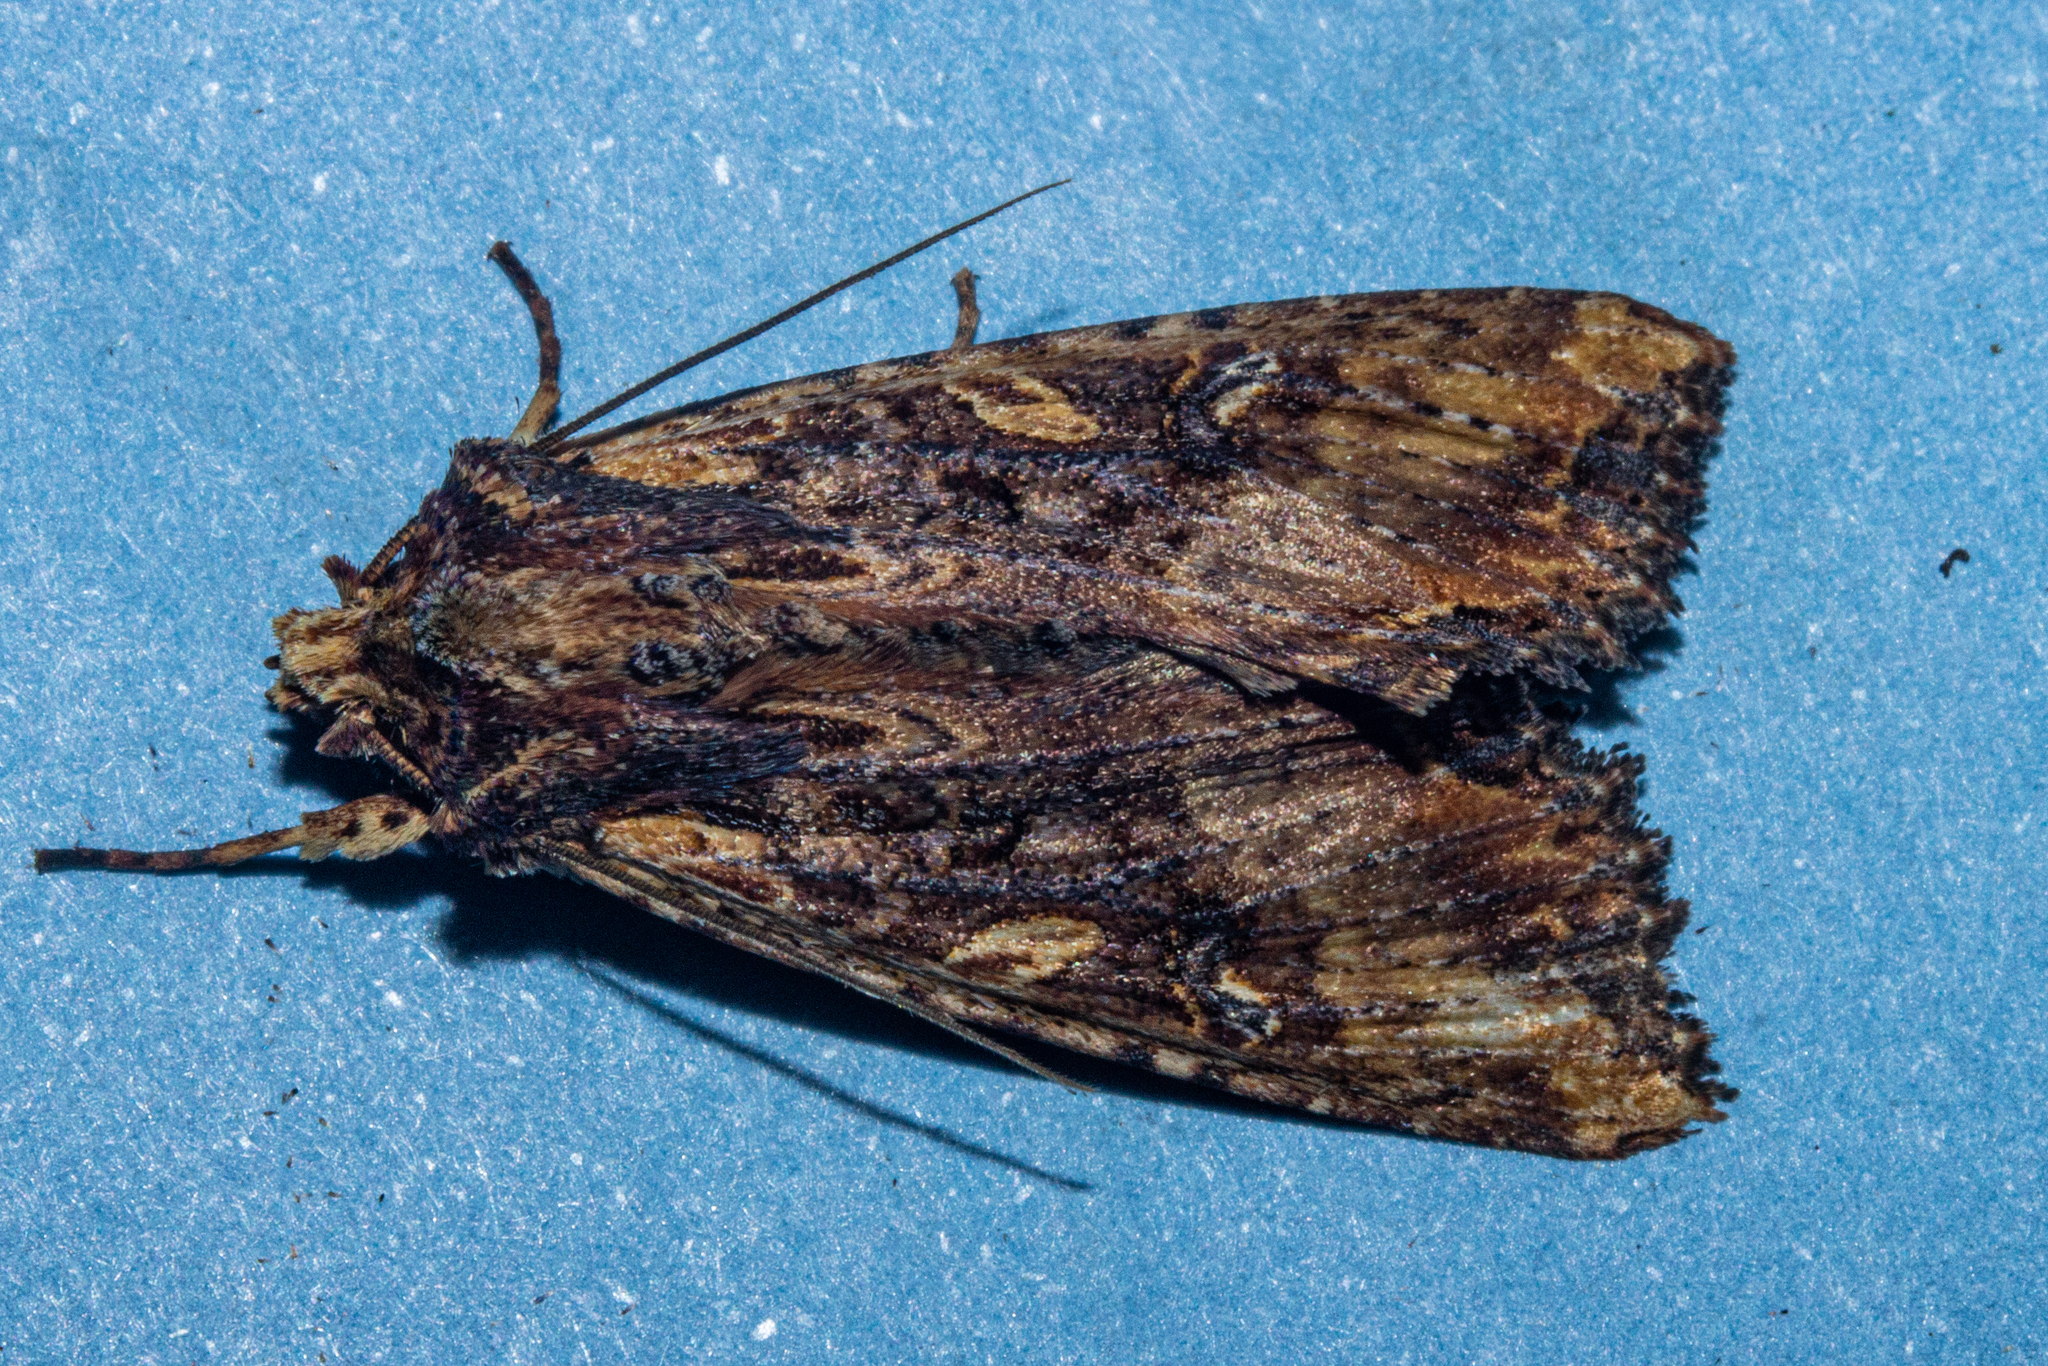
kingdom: Animalia
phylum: Arthropoda
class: Insecta
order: Lepidoptera
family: Noctuidae
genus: Meterana
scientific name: Meterana stipata
